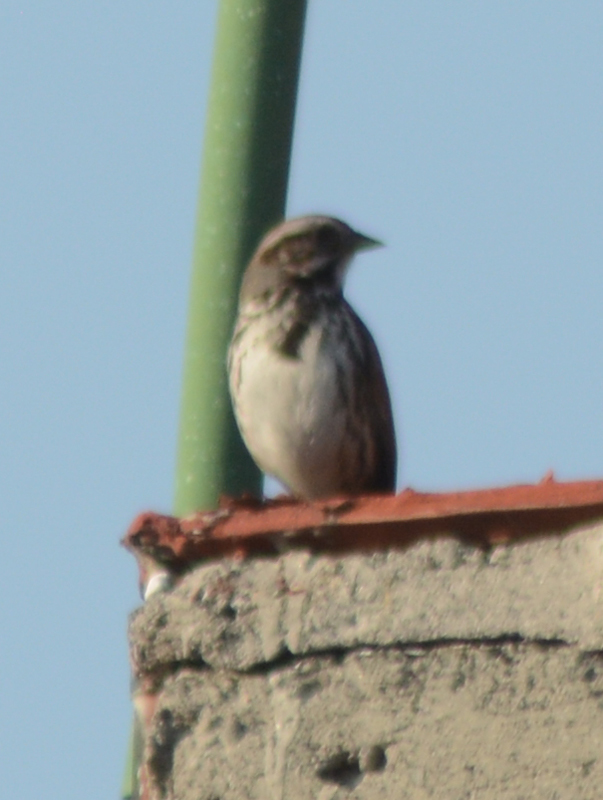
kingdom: Animalia
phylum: Chordata
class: Aves
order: Passeriformes
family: Passerellidae
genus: Melospiza
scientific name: Melospiza melodia
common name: Song sparrow
